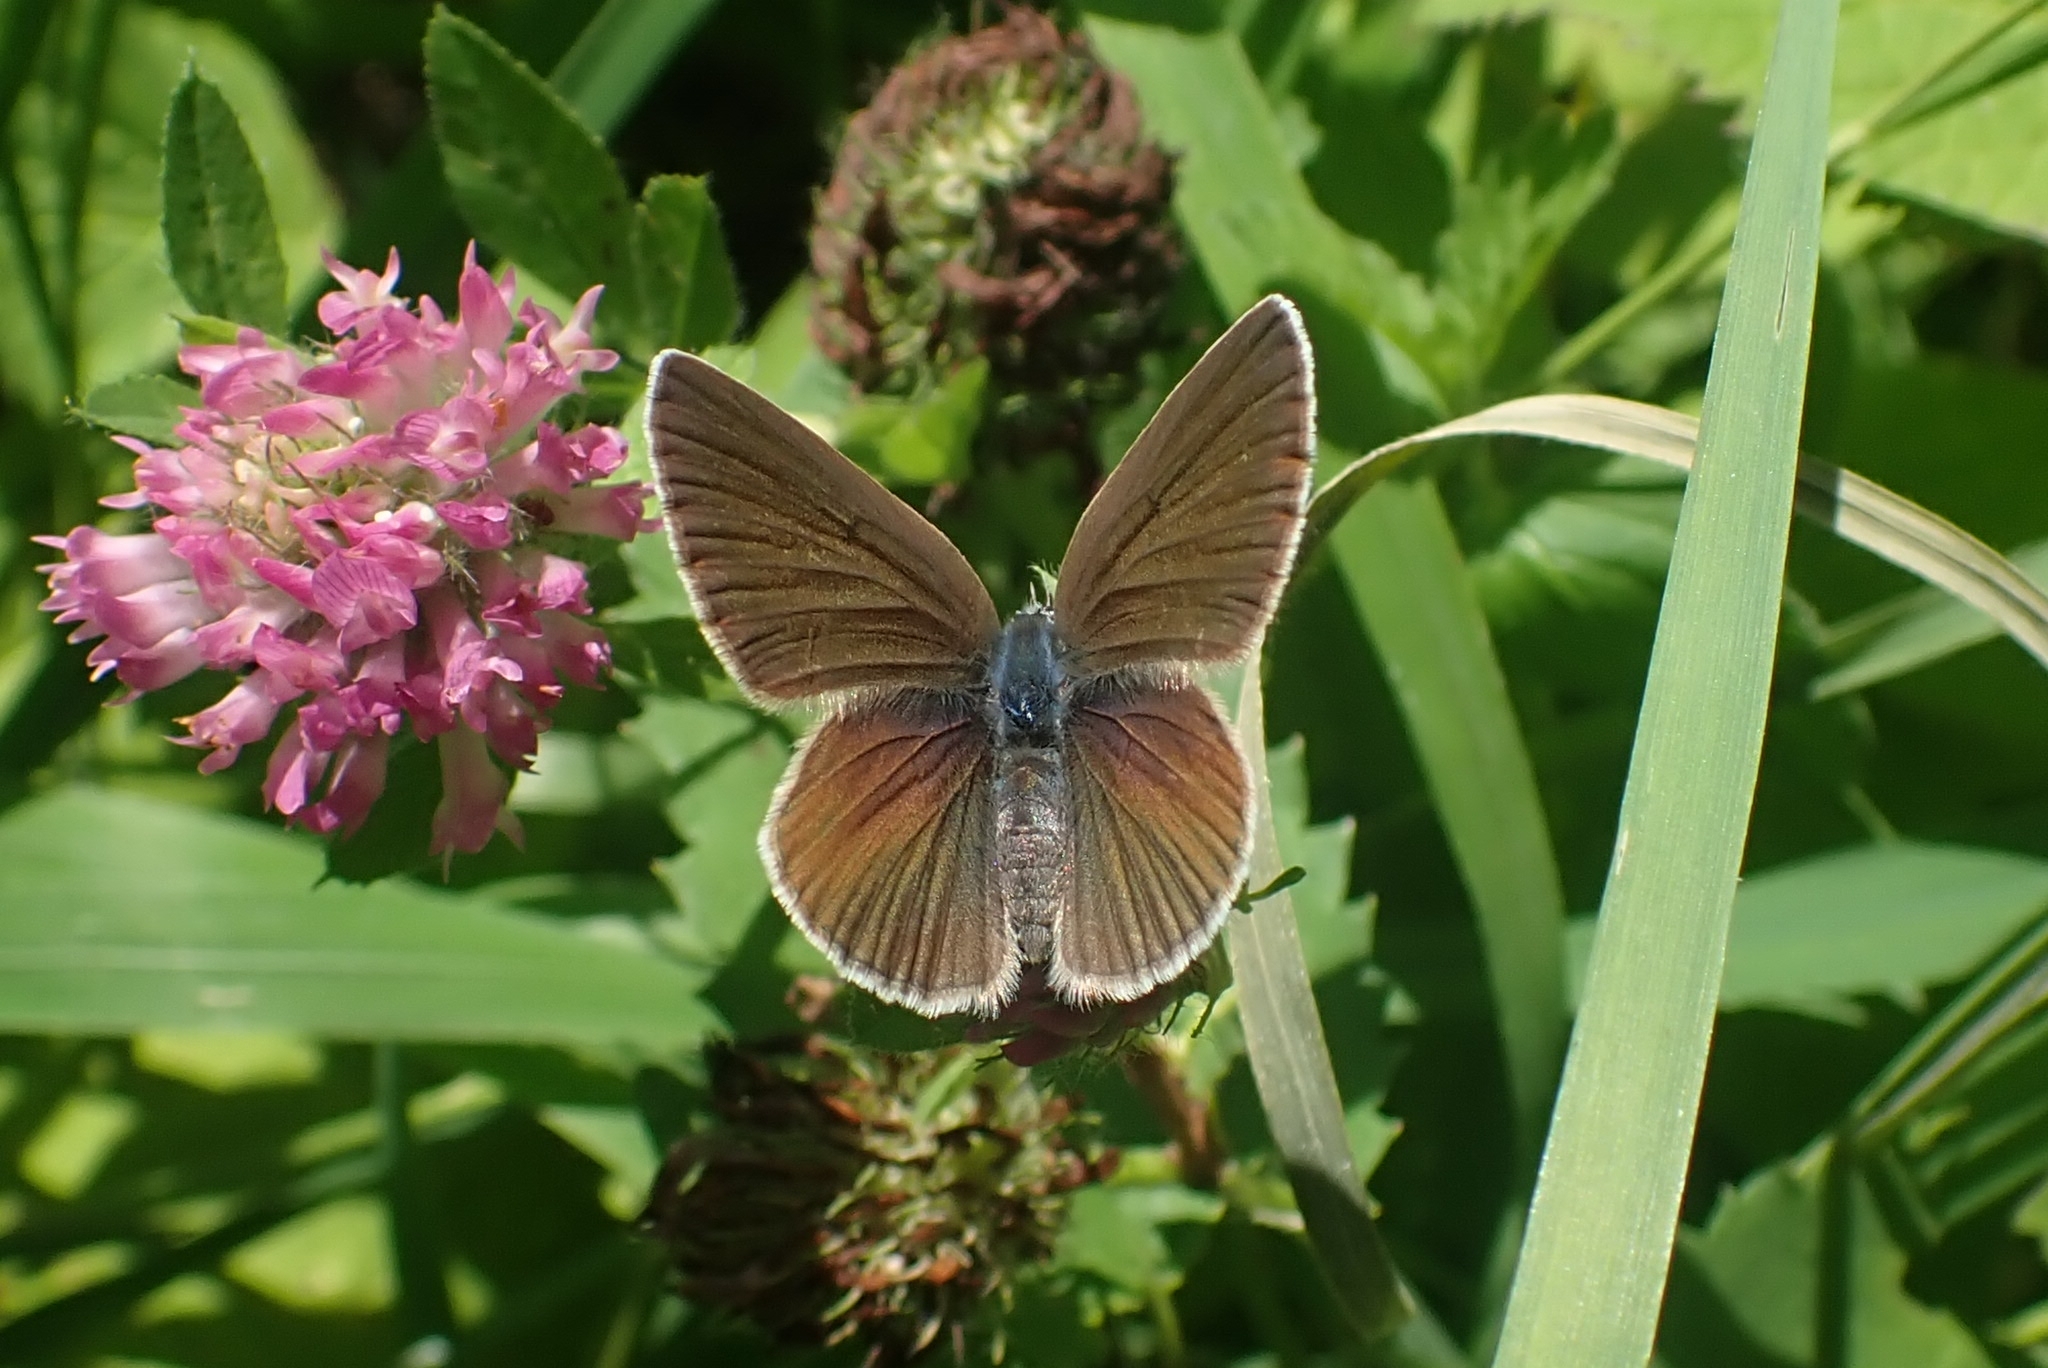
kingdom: Animalia
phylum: Arthropoda
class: Insecta
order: Lepidoptera
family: Lycaenidae
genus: Cyaniris
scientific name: Cyaniris semiargus
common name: Mazarine blue
